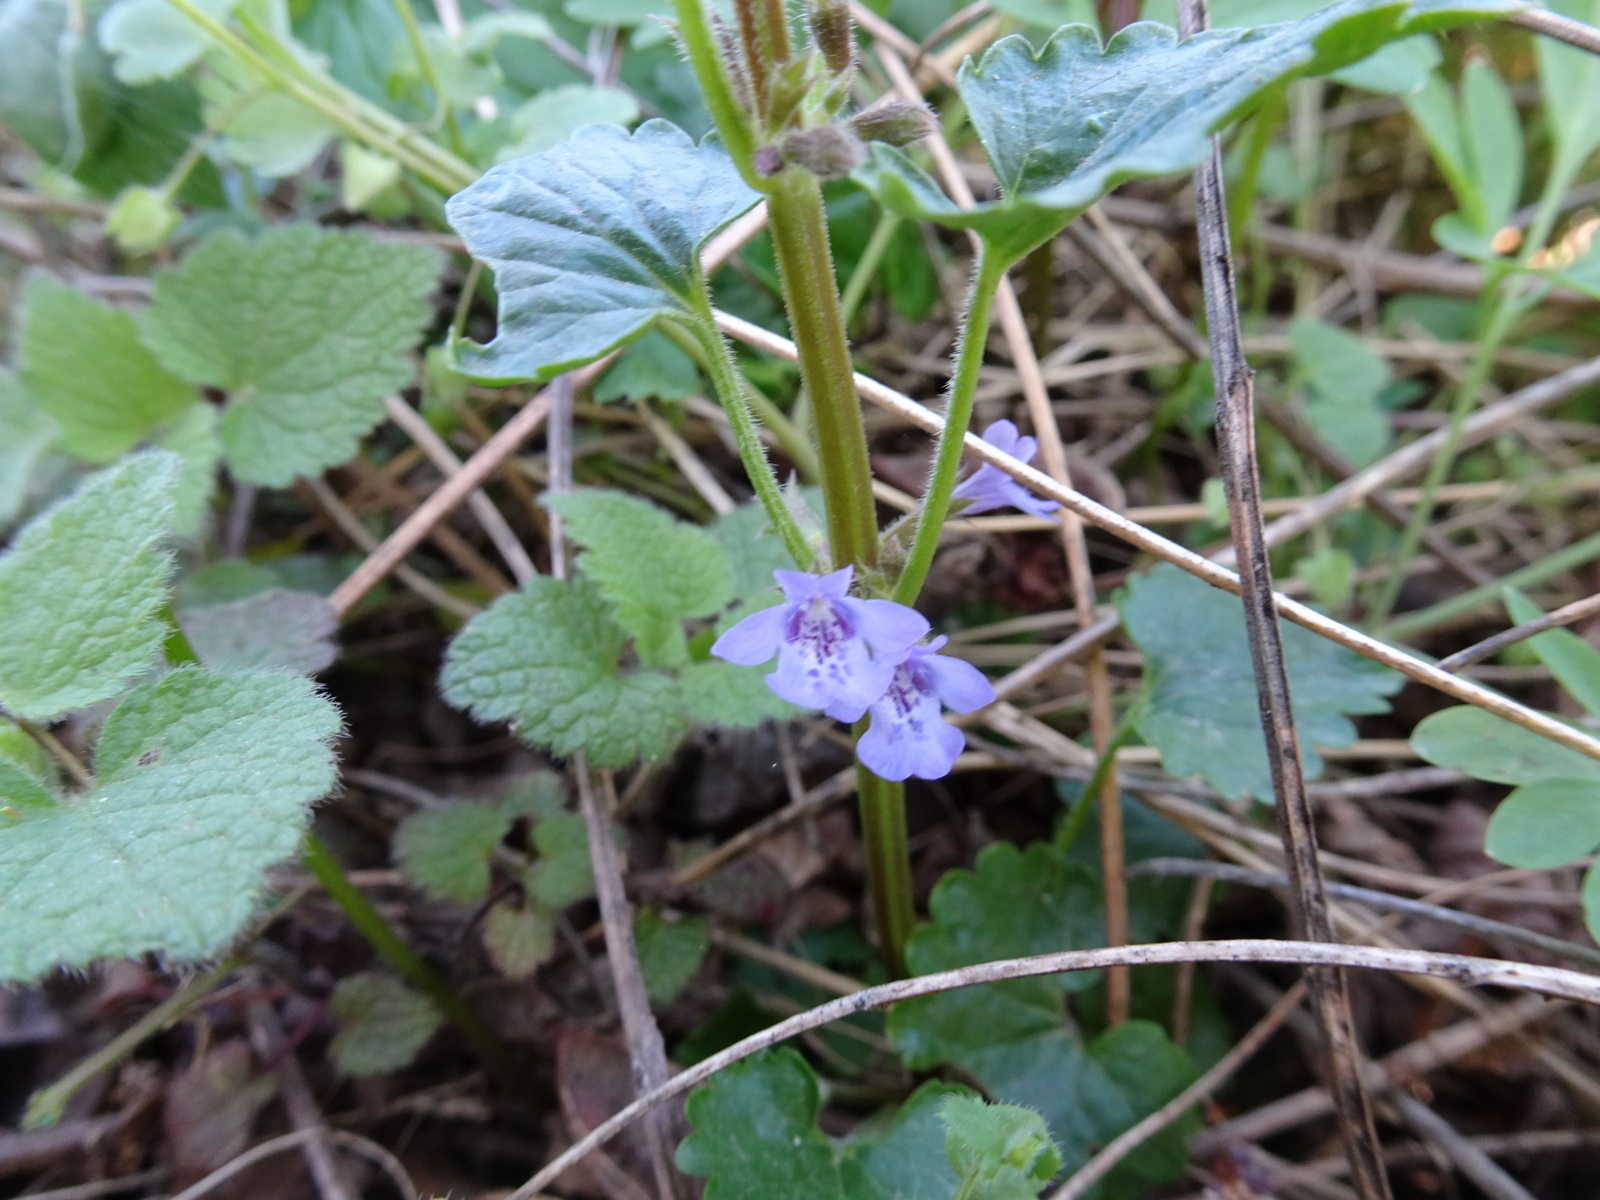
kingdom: Plantae
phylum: Tracheophyta
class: Magnoliopsida
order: Lamiales
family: Lamiaceae
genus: Glechoma
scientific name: Glechoma hederacea
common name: Ground ivy
